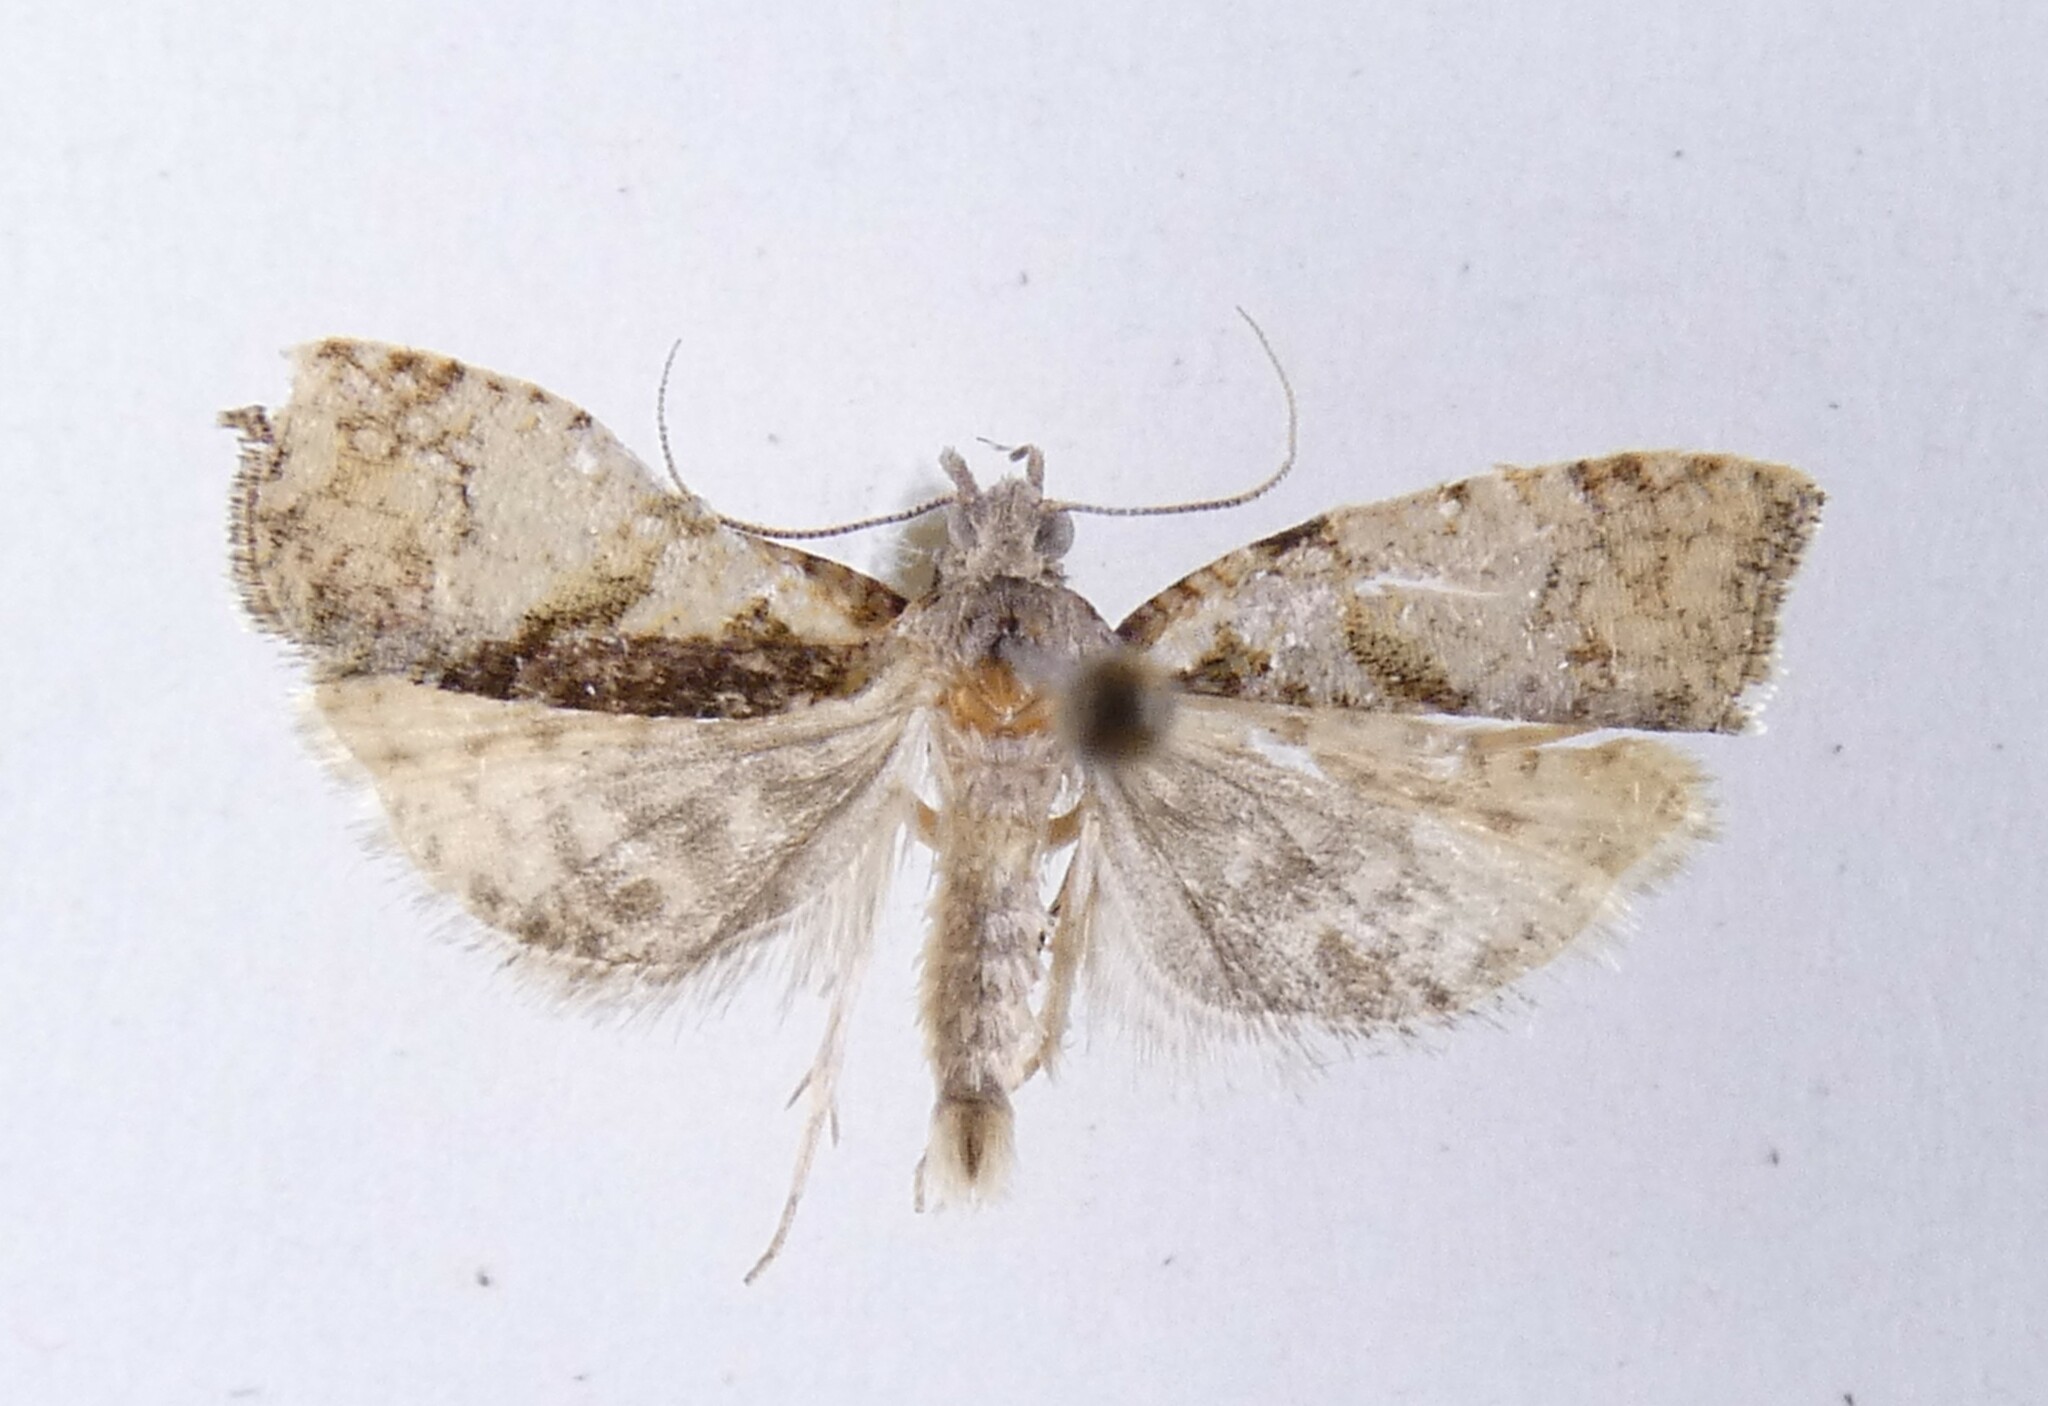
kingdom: Animalia
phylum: Arthropoda
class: Insecta
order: Lepidoptera
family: Tortricidae
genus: Pyrgotis
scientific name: Pyrgotis plagiatana
